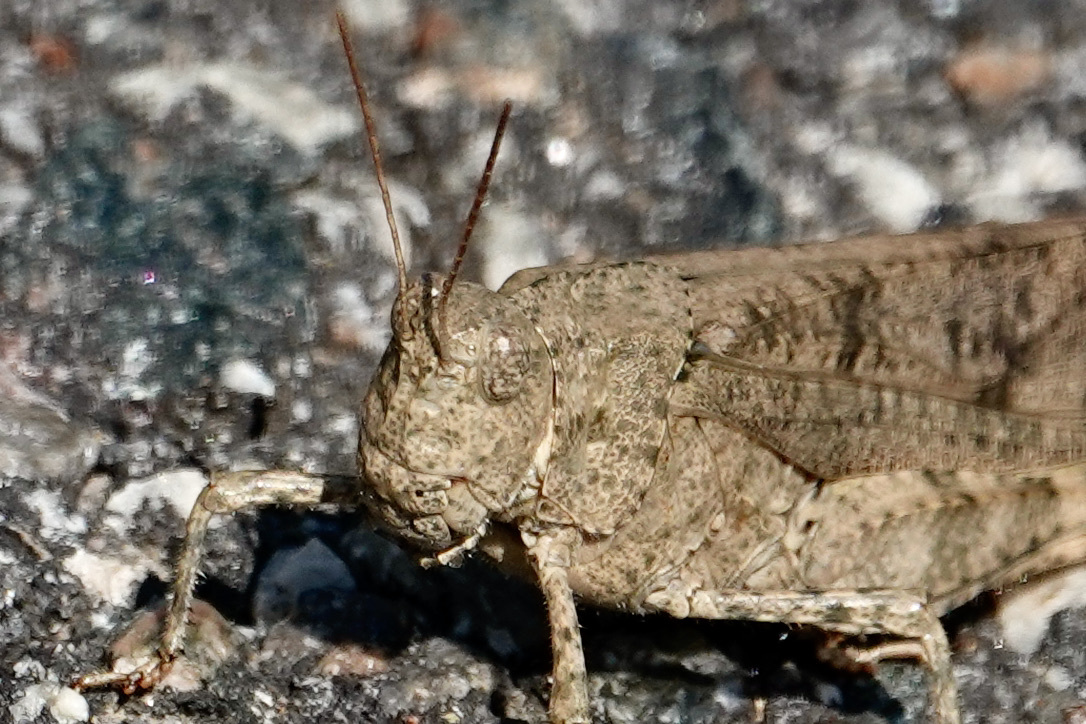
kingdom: Animalia
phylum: Arthropoda
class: Insecta
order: Orthoptera
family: Acrididae
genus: Dissosteira
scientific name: Dissosteira carolina
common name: Carolina grasshopper
